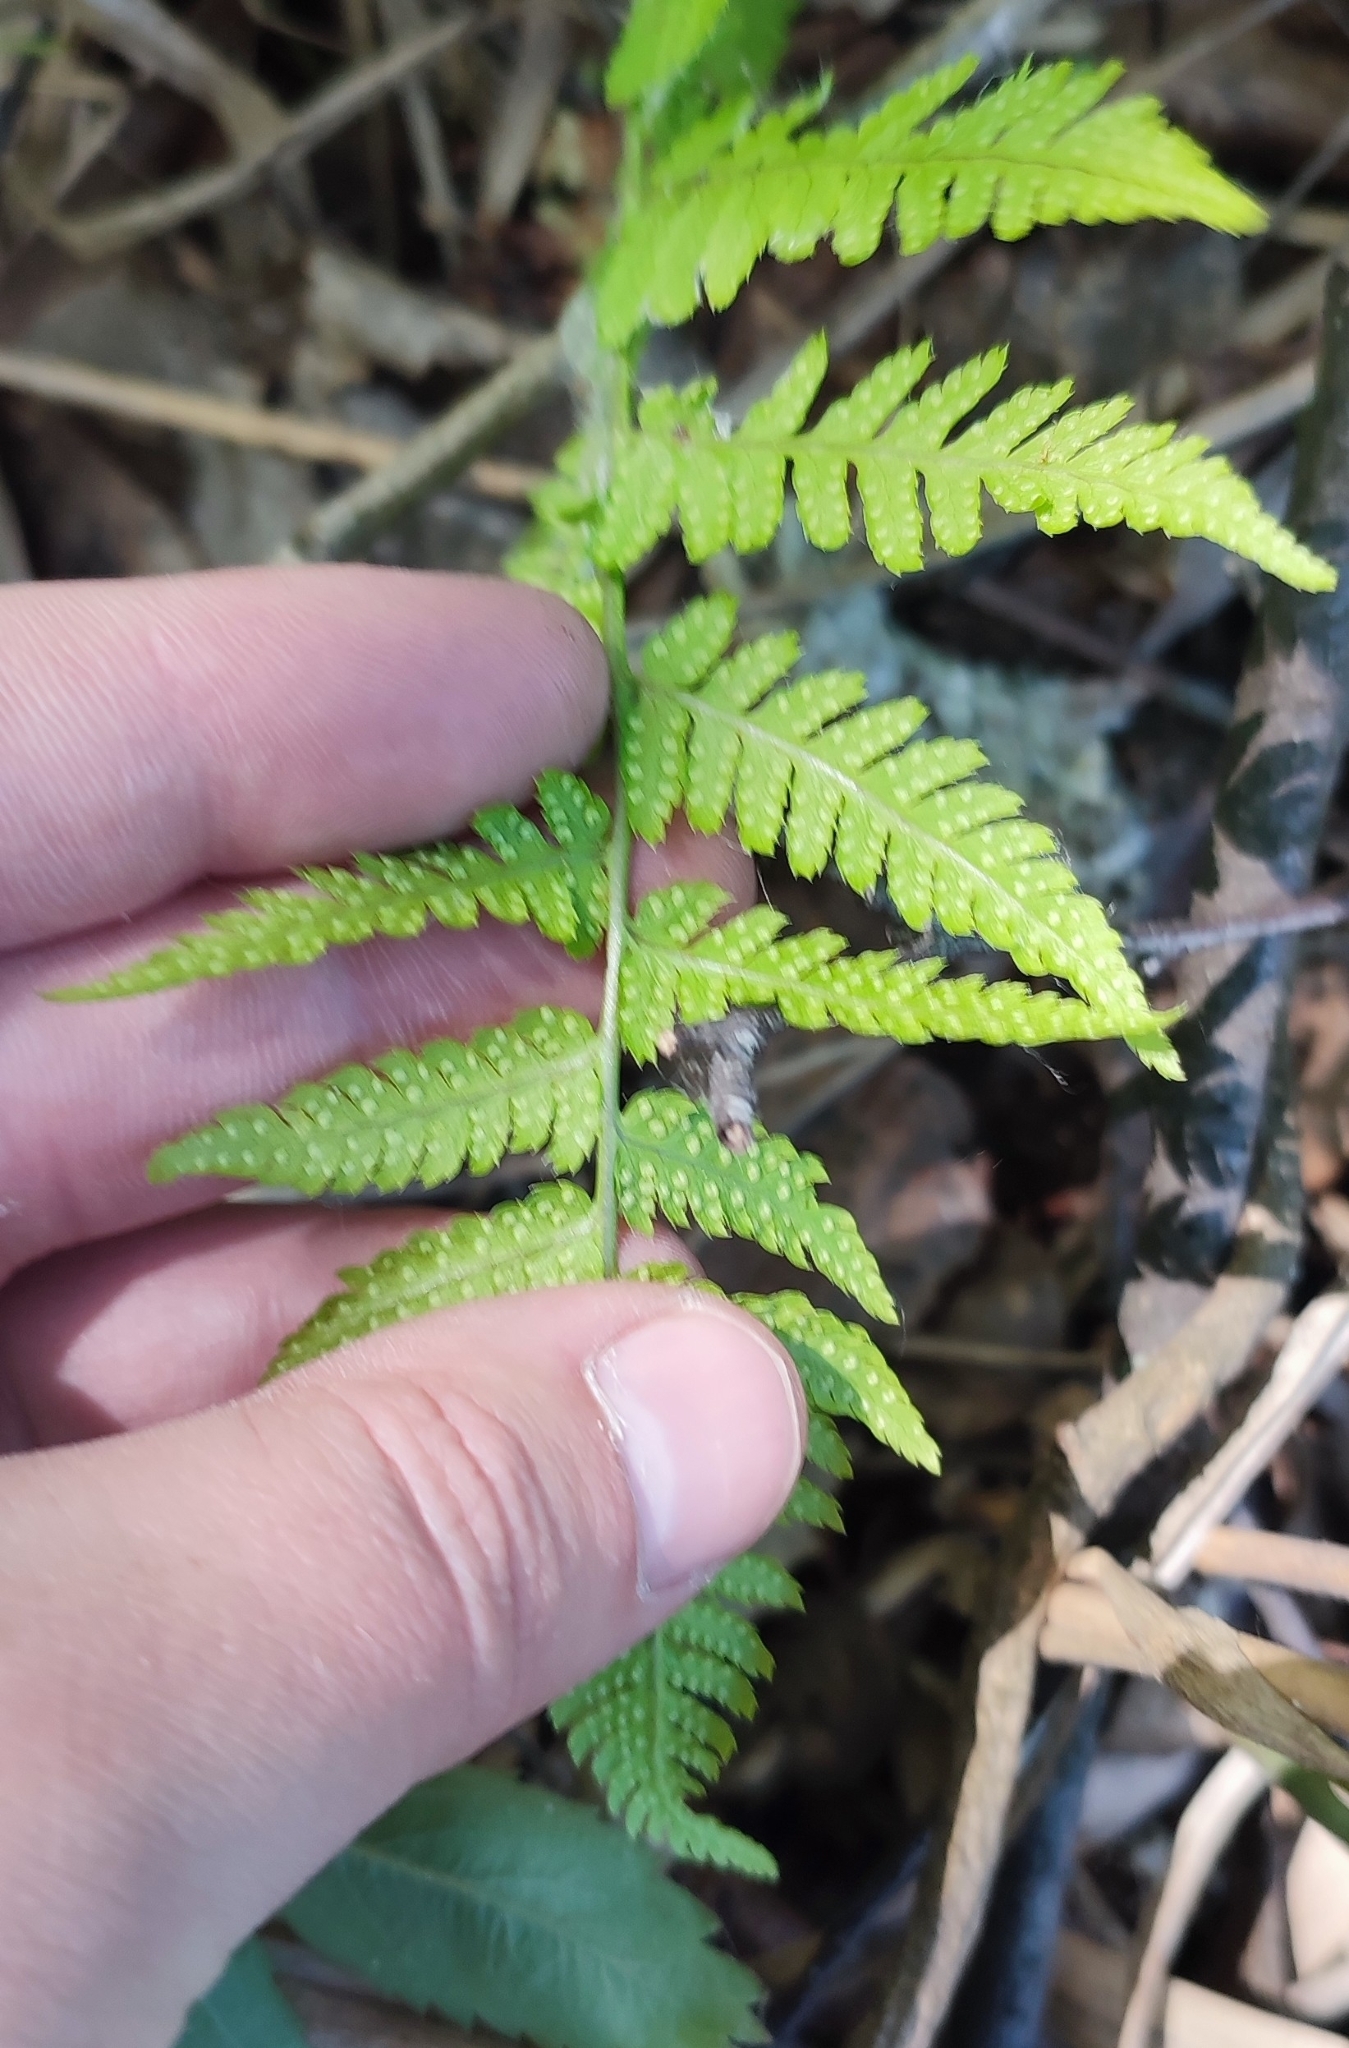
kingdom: Plantae
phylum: Tracheophyta
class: Polypodiopsida
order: Polypodiales
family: Dryopteridaceae
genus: Dryopteris
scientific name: Dryopteris carthusiana
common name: Narrow buckler-fern
